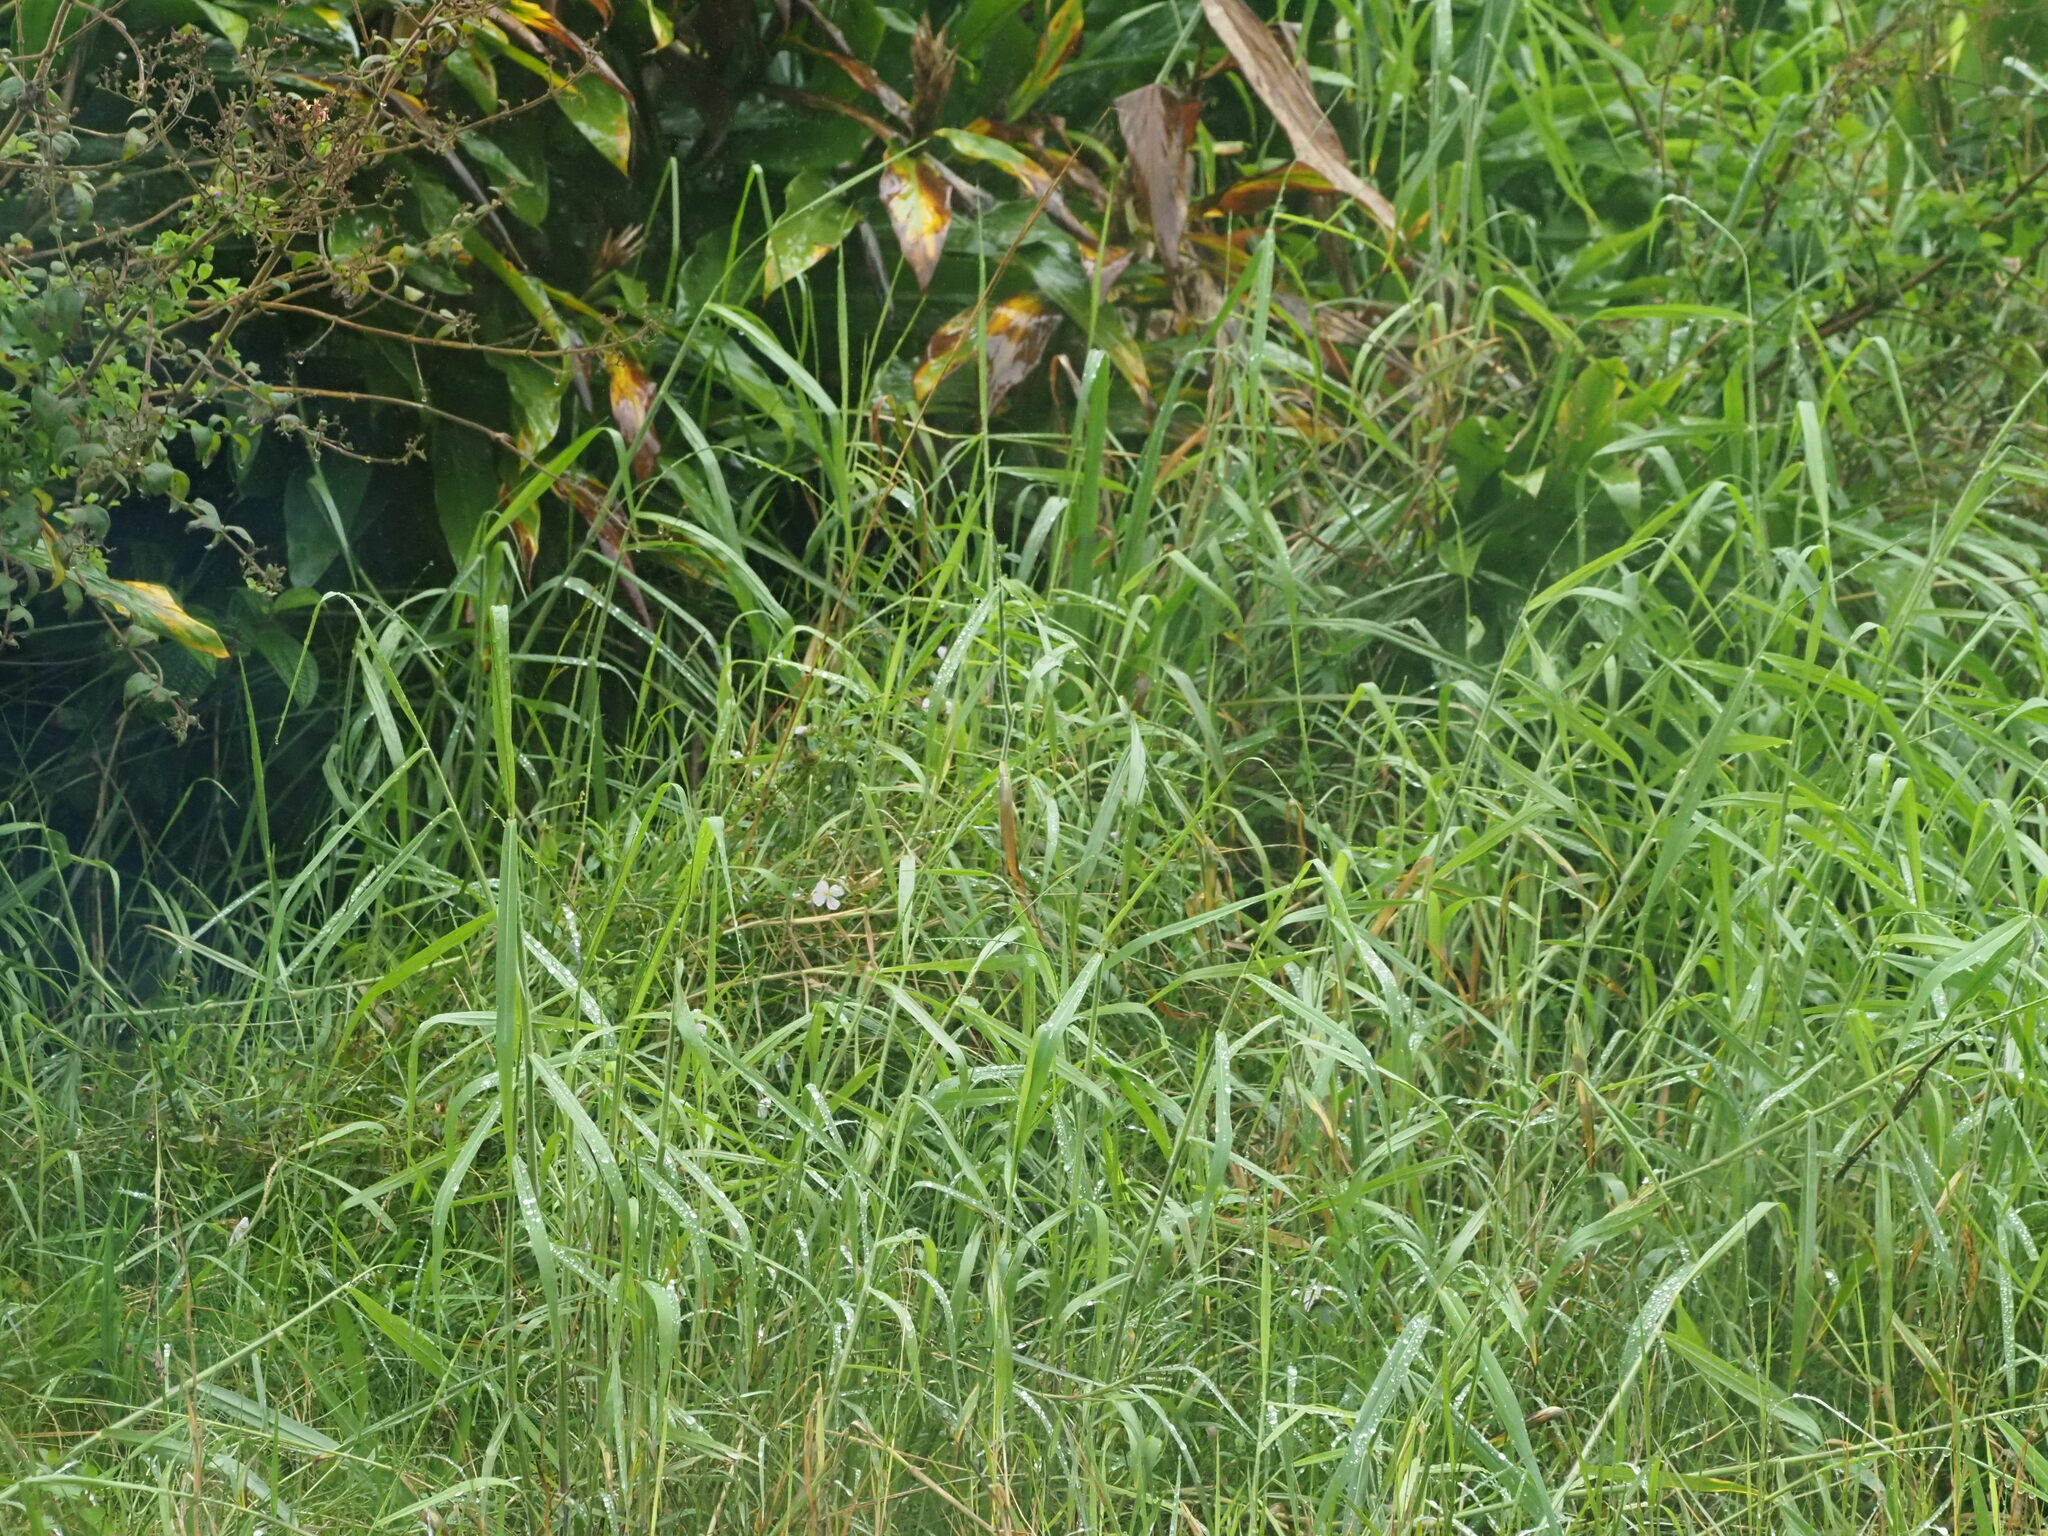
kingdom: Plantae
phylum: Tracheophyta
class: Liliopsida
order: Poales
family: Poaceae
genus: Urochloa
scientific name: Urochloa mutica
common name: Para grass
